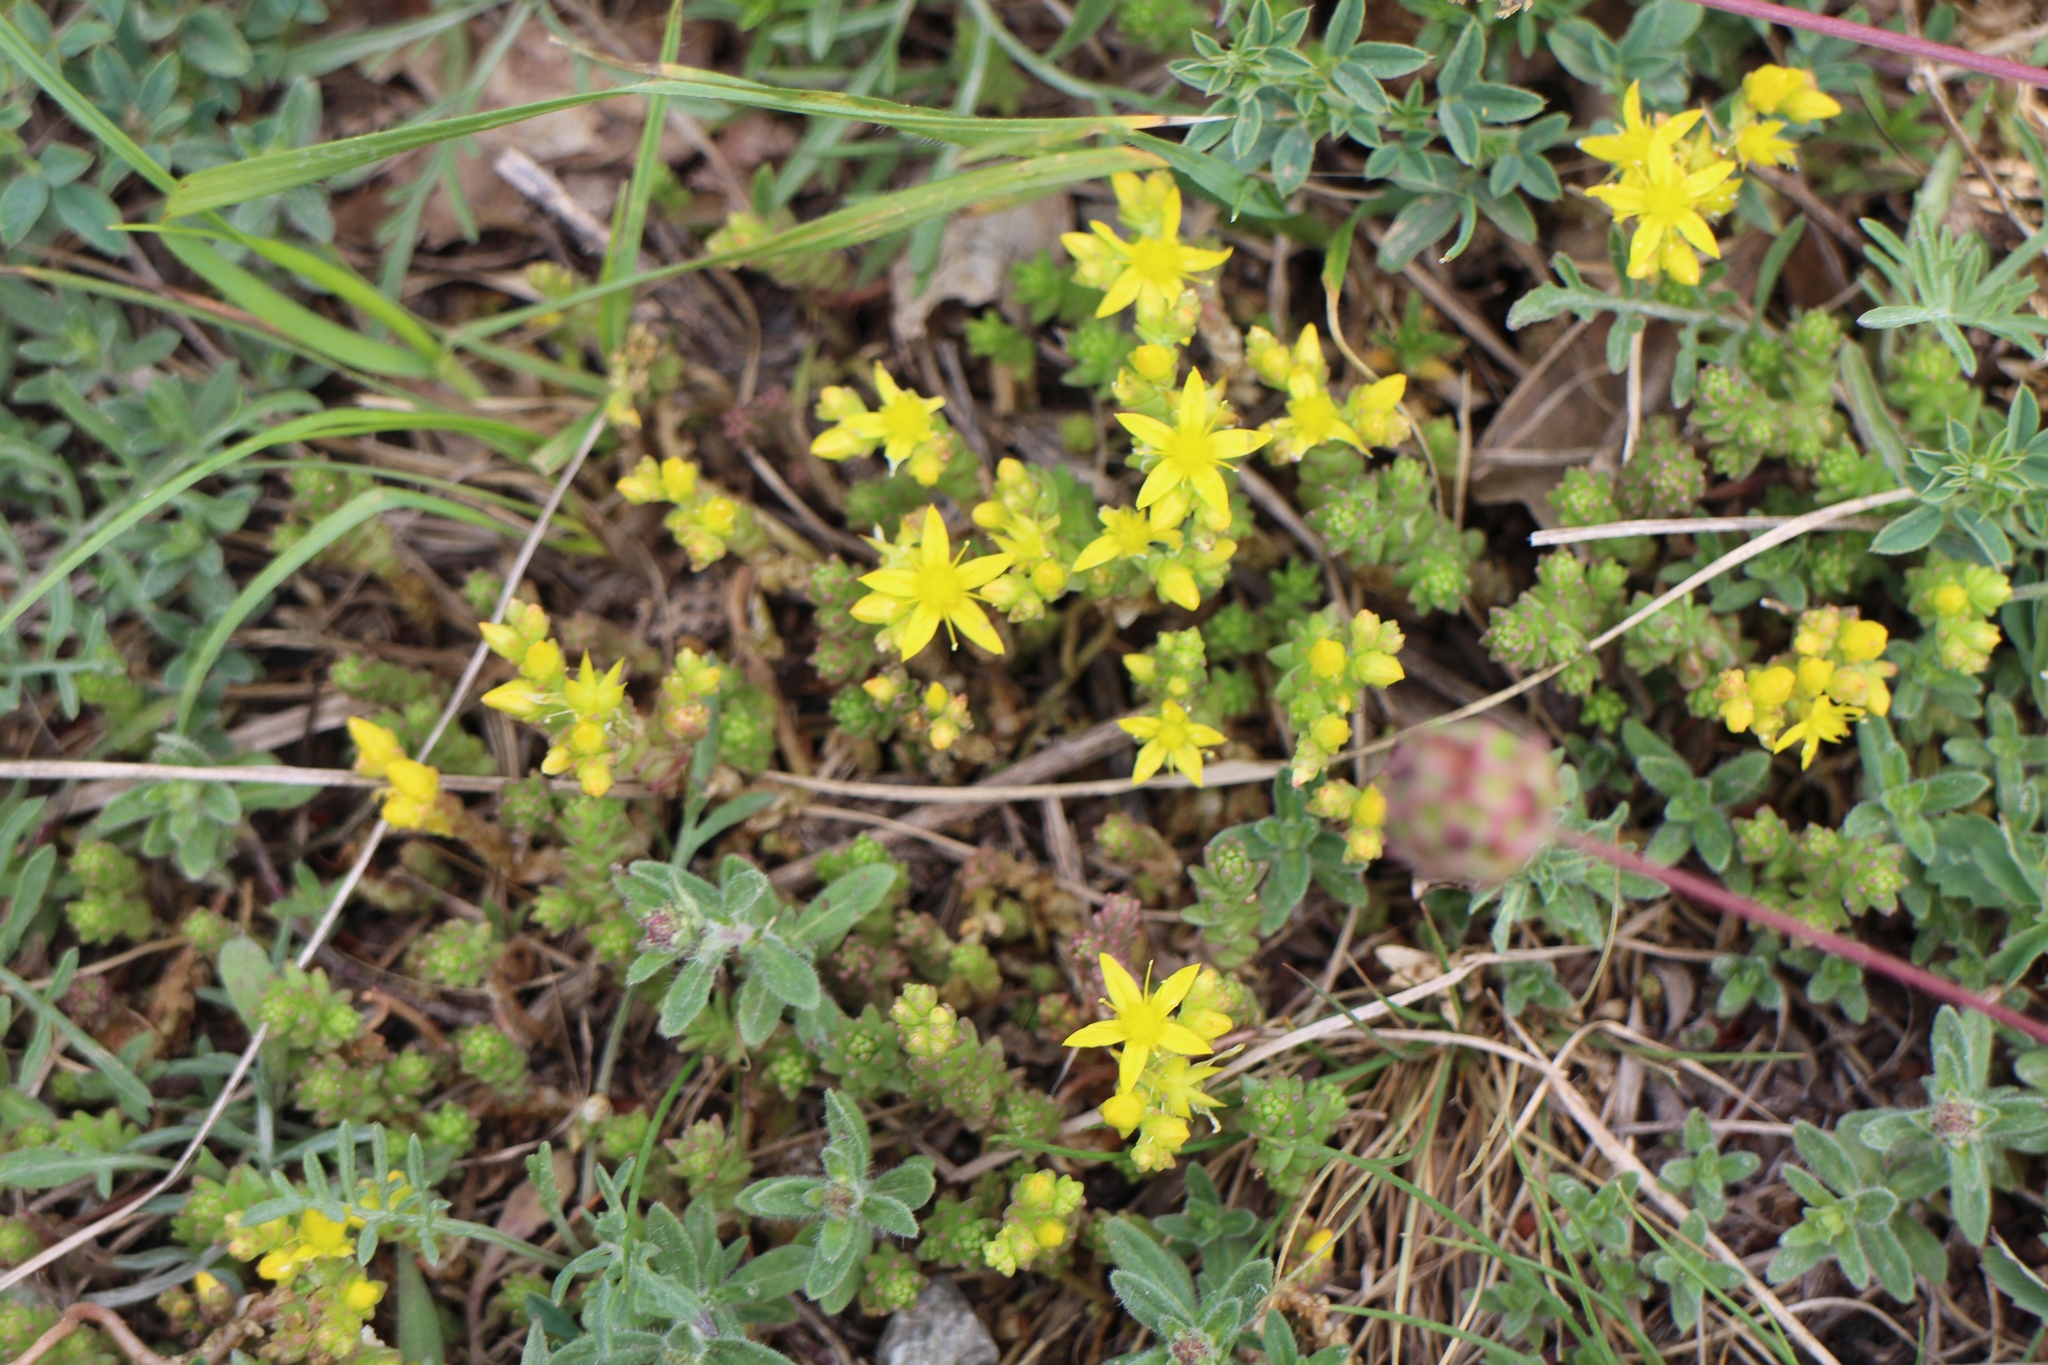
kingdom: Plantae
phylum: Tracheophyta
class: Magnoliopsida
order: Saxifragales
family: Crassulaceae
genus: Sedum
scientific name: Sedum acre
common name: Biting stonecrop
